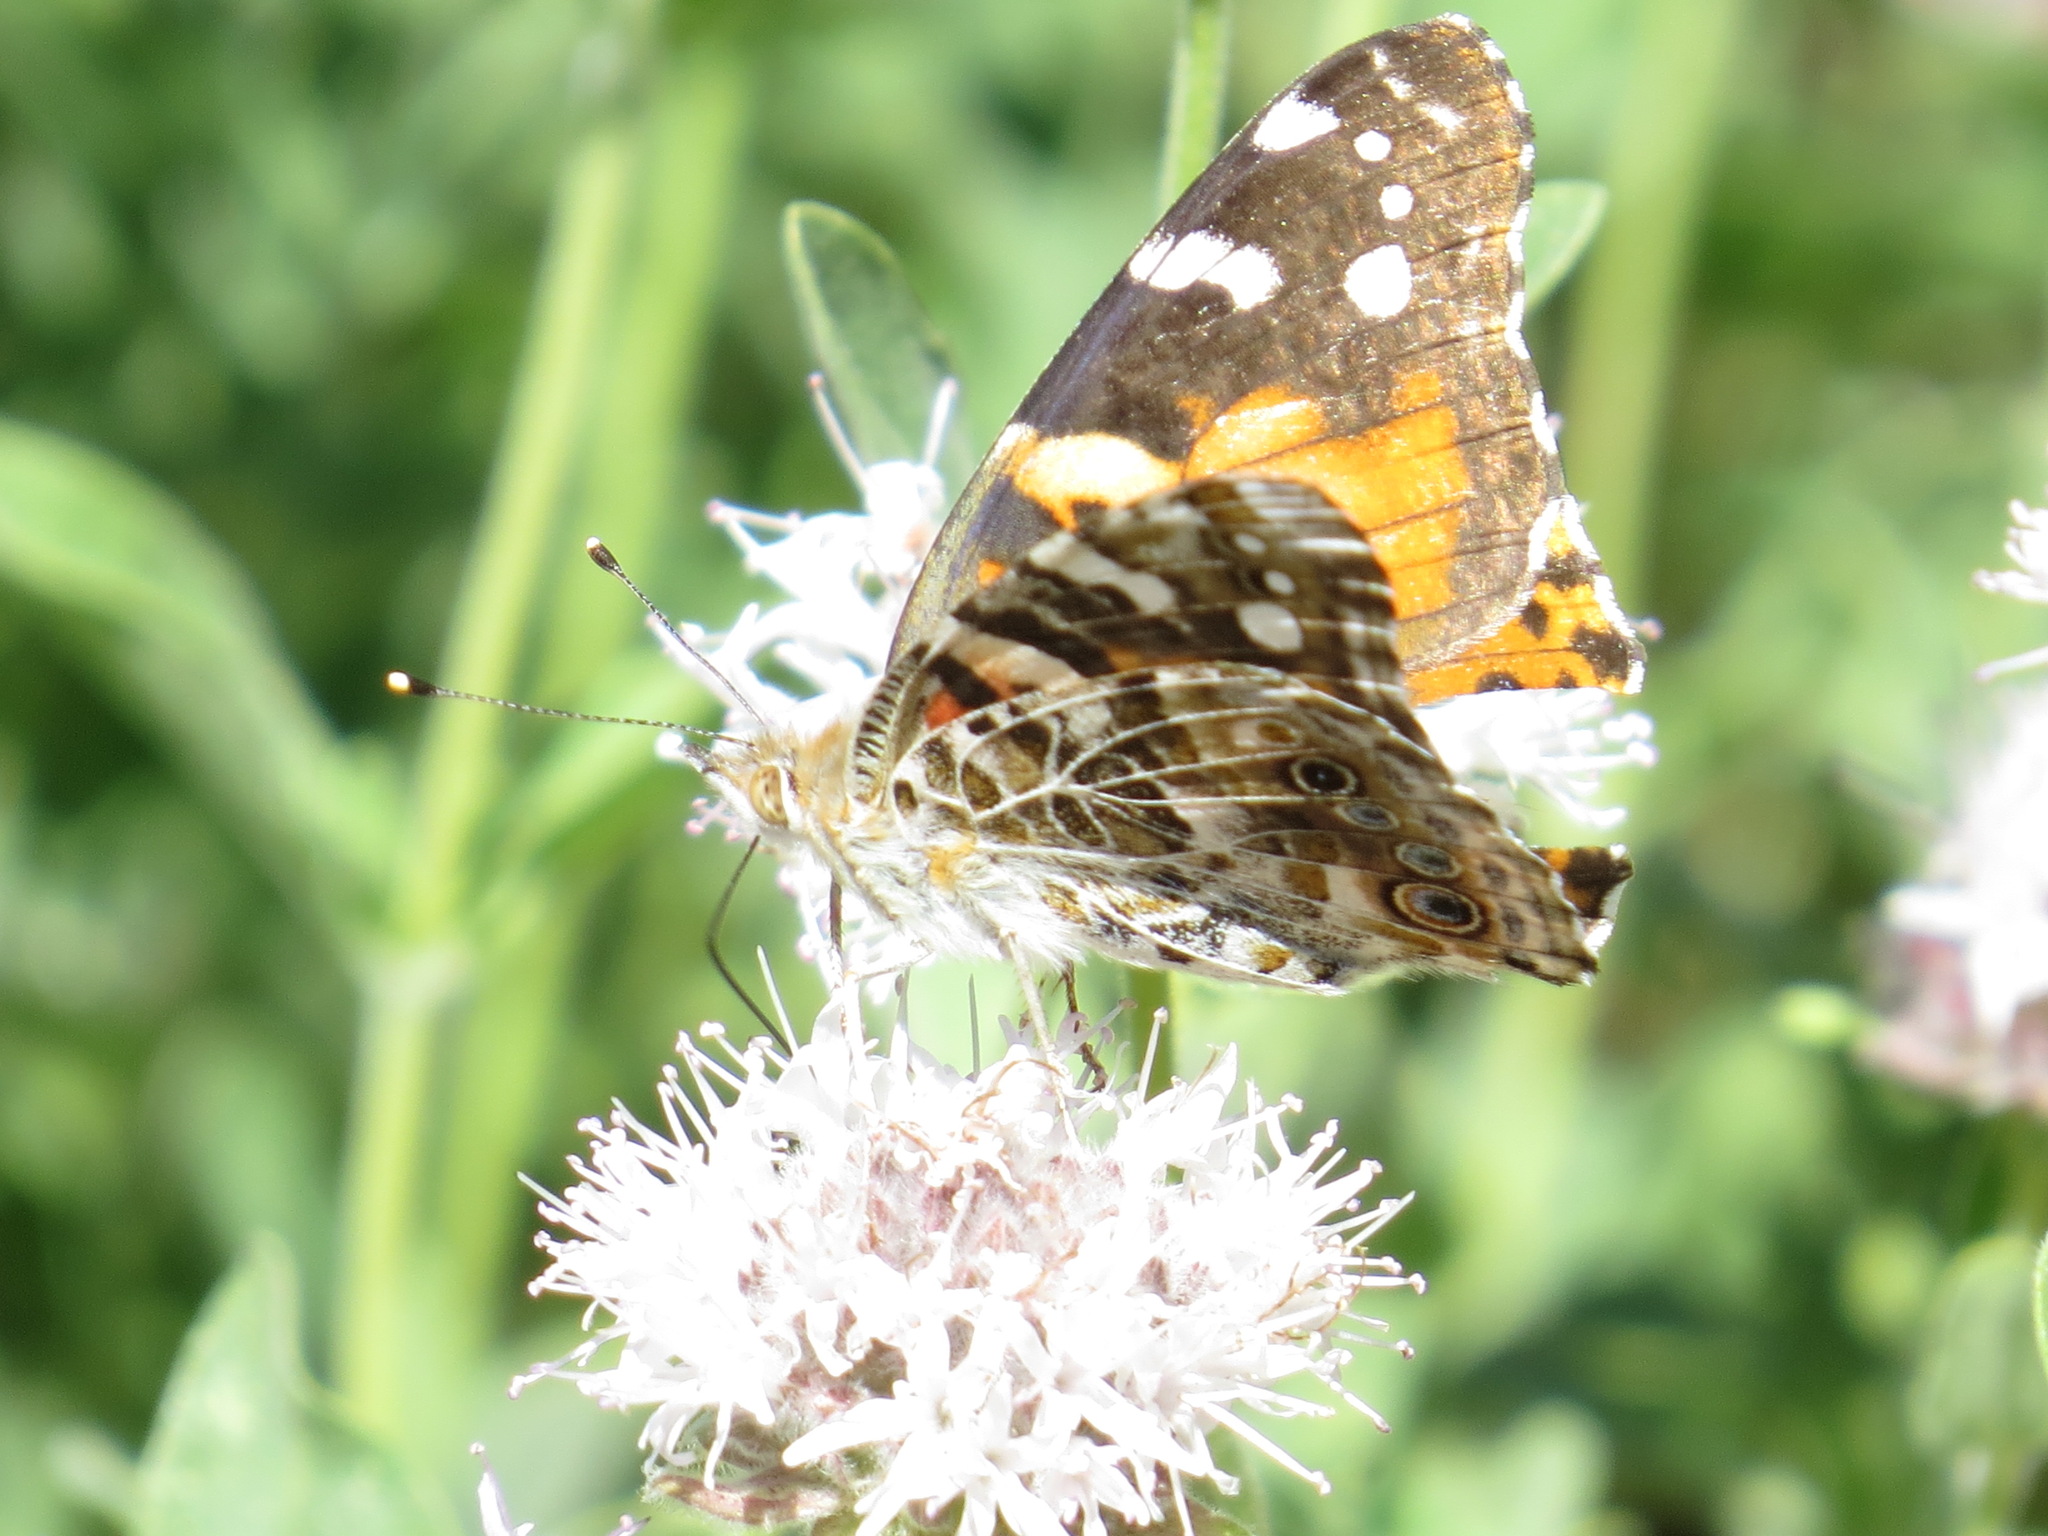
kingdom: Animalia
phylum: Arthropoda
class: Insecta
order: Lepidoptera
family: Nymphalidae
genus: Vanessa
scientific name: Vanessa cardui
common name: Painted lady
